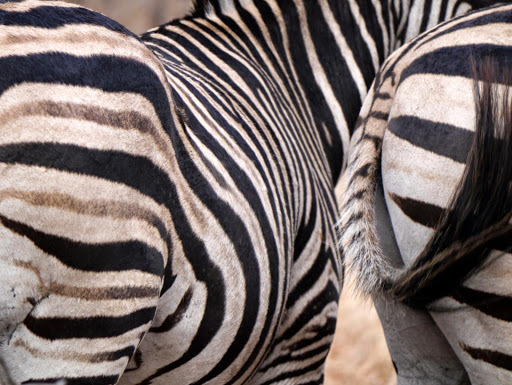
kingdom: Animalia
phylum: Chordata
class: Mammalia
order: Perissodactyla
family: Equidae
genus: Equus
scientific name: Equus quagga
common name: Plains zebra
